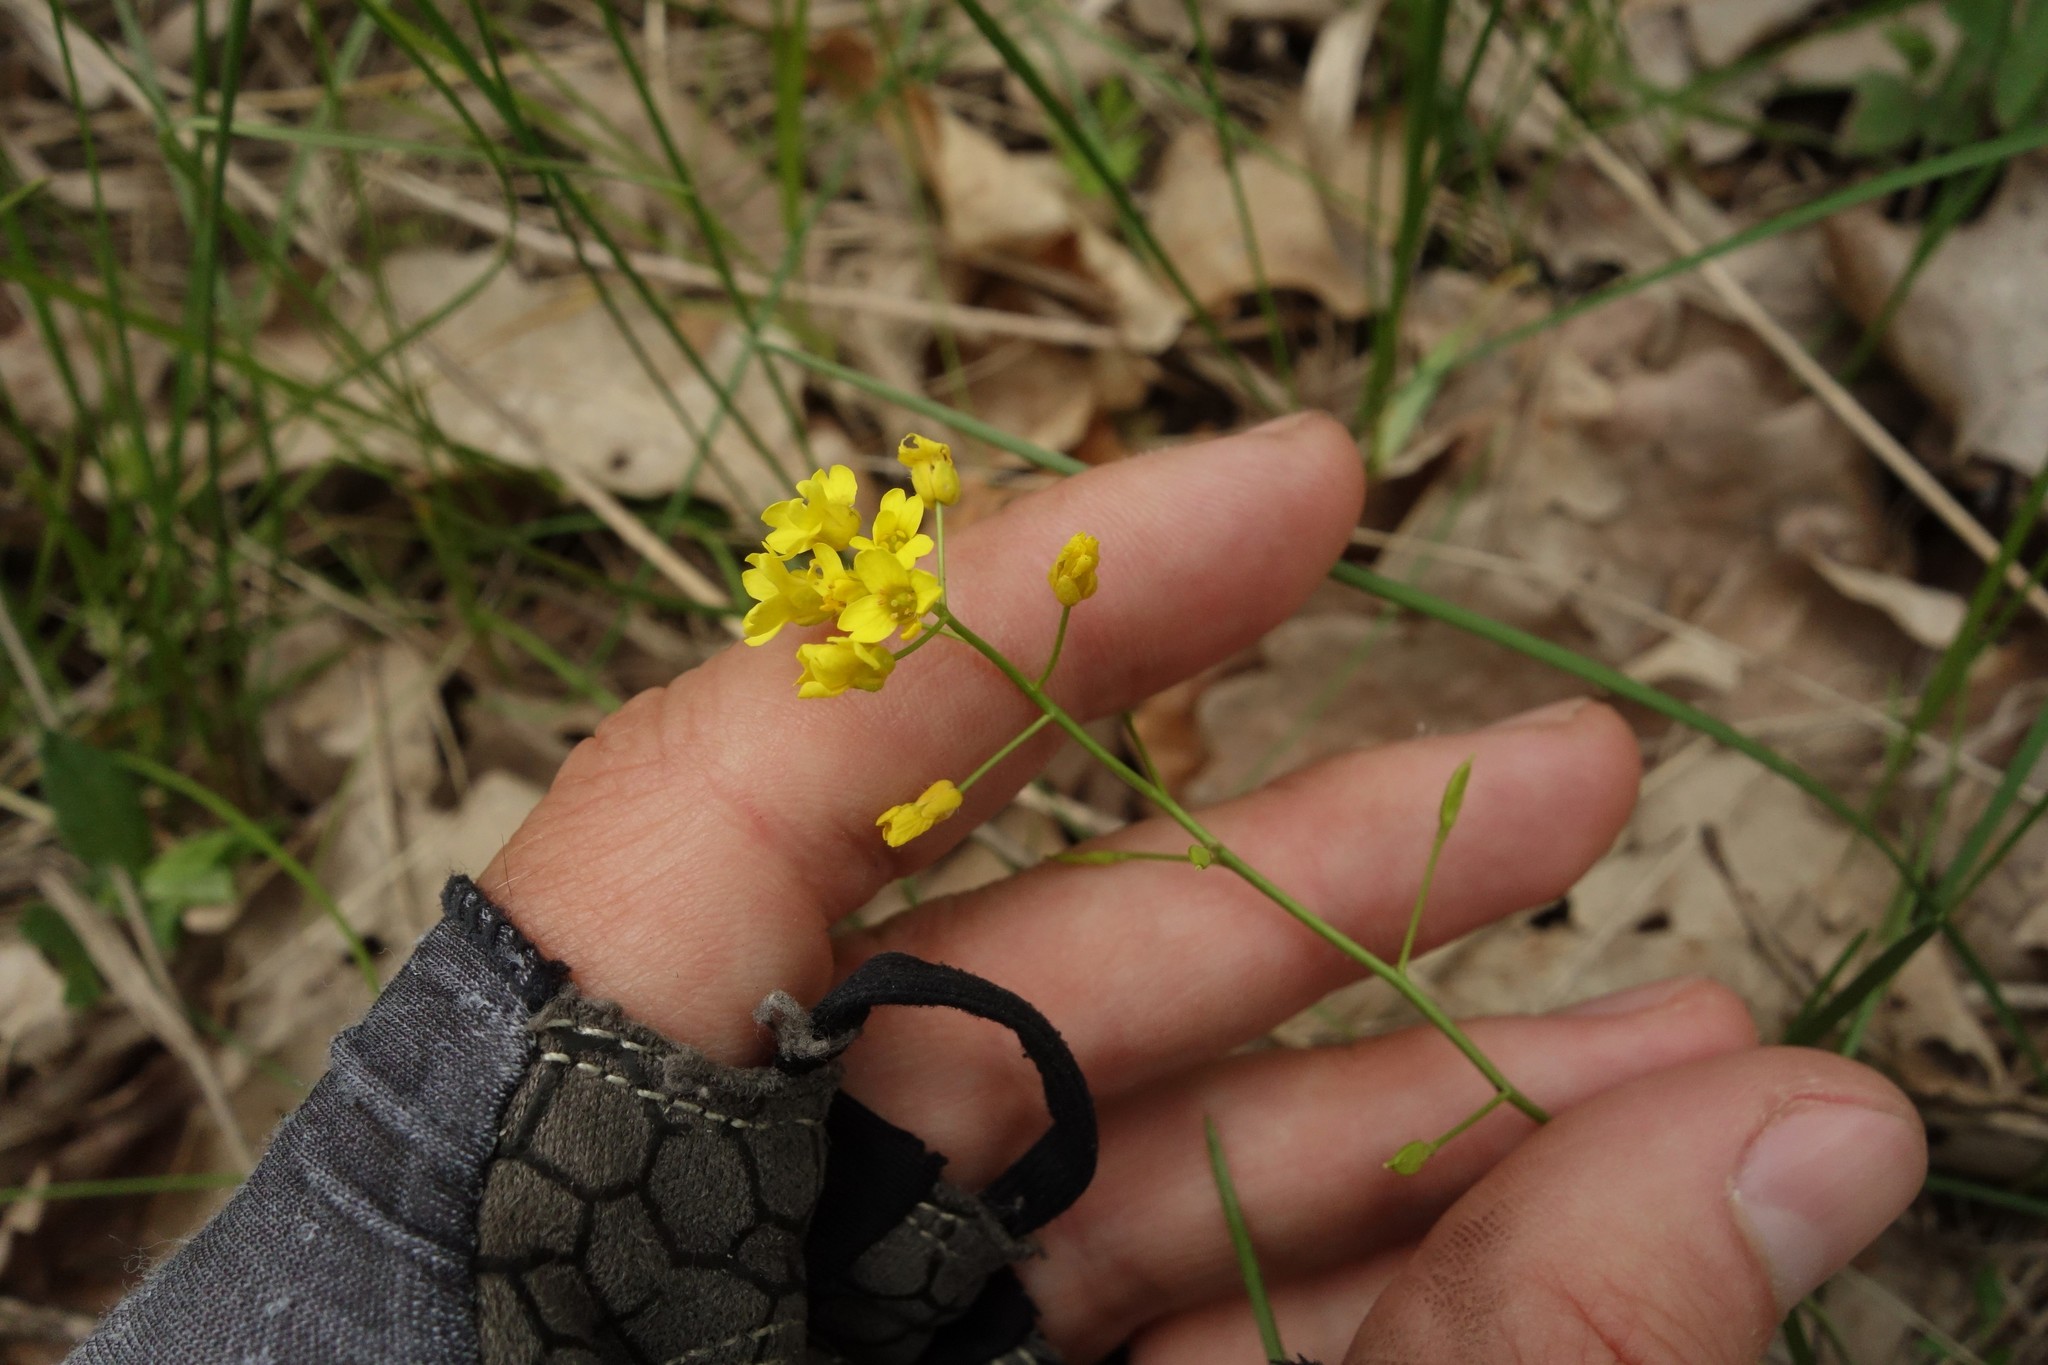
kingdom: Plantae
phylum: Tracheophyta
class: Magnoliopsida
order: Brassicales
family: Brassicaceae
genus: Draba
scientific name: Draba sibirica
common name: Siberian draba
